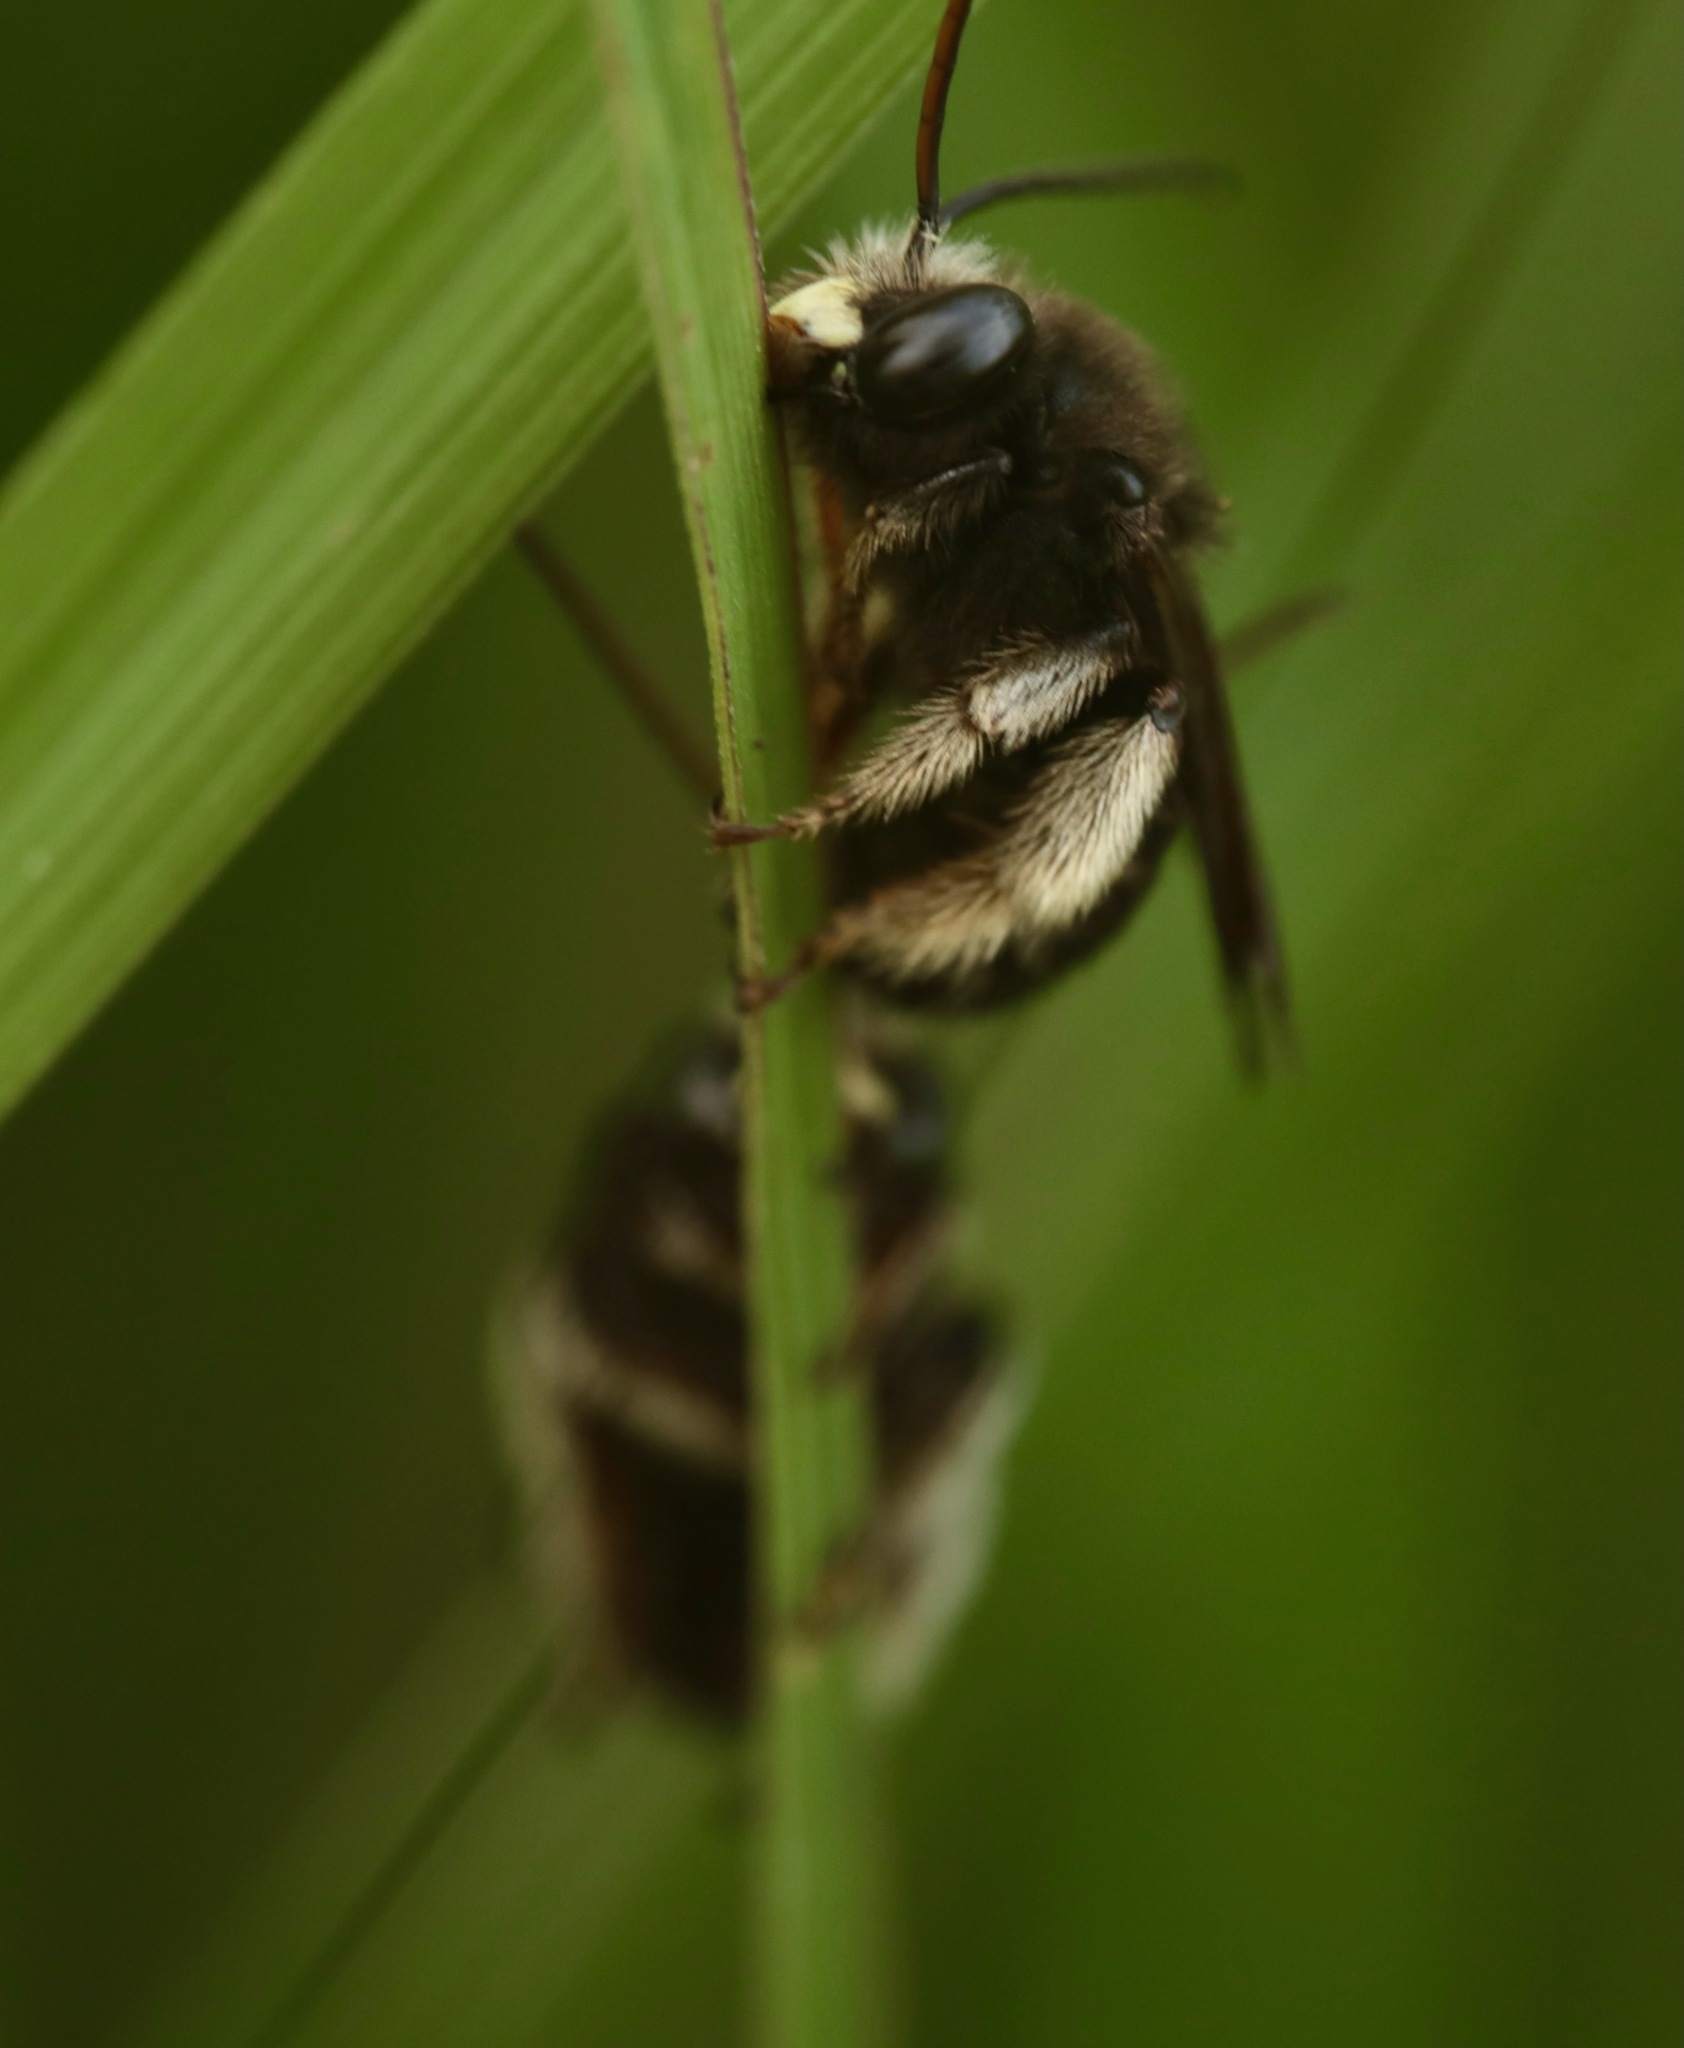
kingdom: Animalia
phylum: Arthropoda
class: Insecta
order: Hymenoptera
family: Apidae
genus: Melissodes
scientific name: Melissodes bimaculatus
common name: Two-spotted long-horned bee
